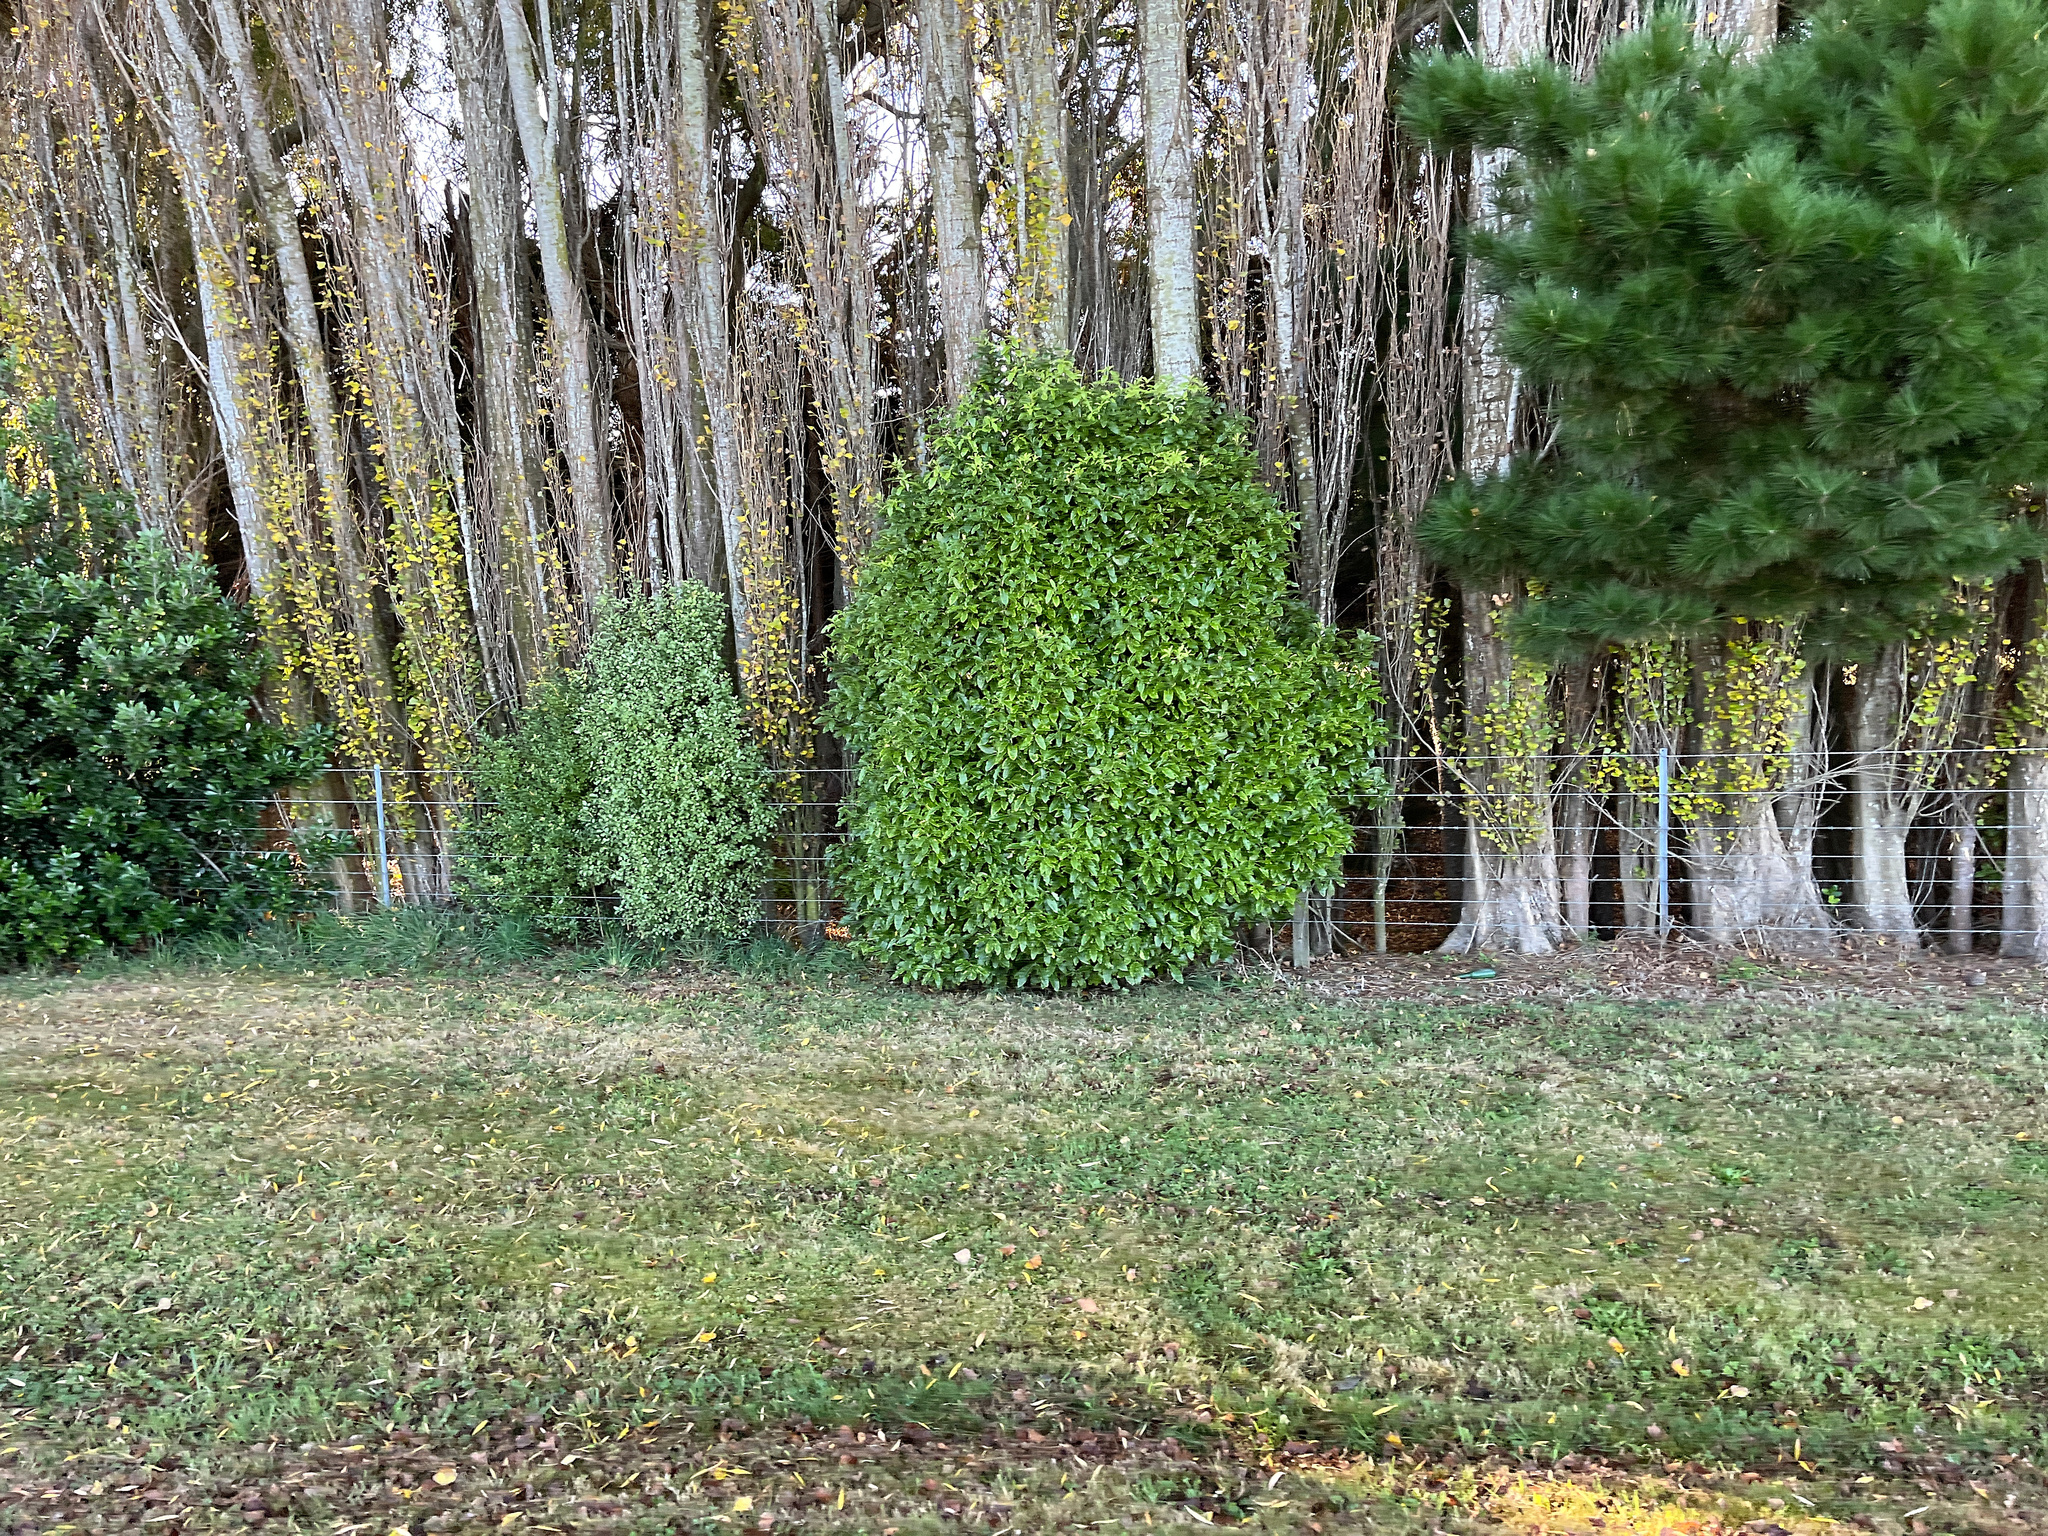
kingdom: Plantae
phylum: Tracheophyta
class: Magnoliopsida
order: Apiales
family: Pittosporaceae
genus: Pittosporum
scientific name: Pittosporum eugenioides
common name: Lemonwood
